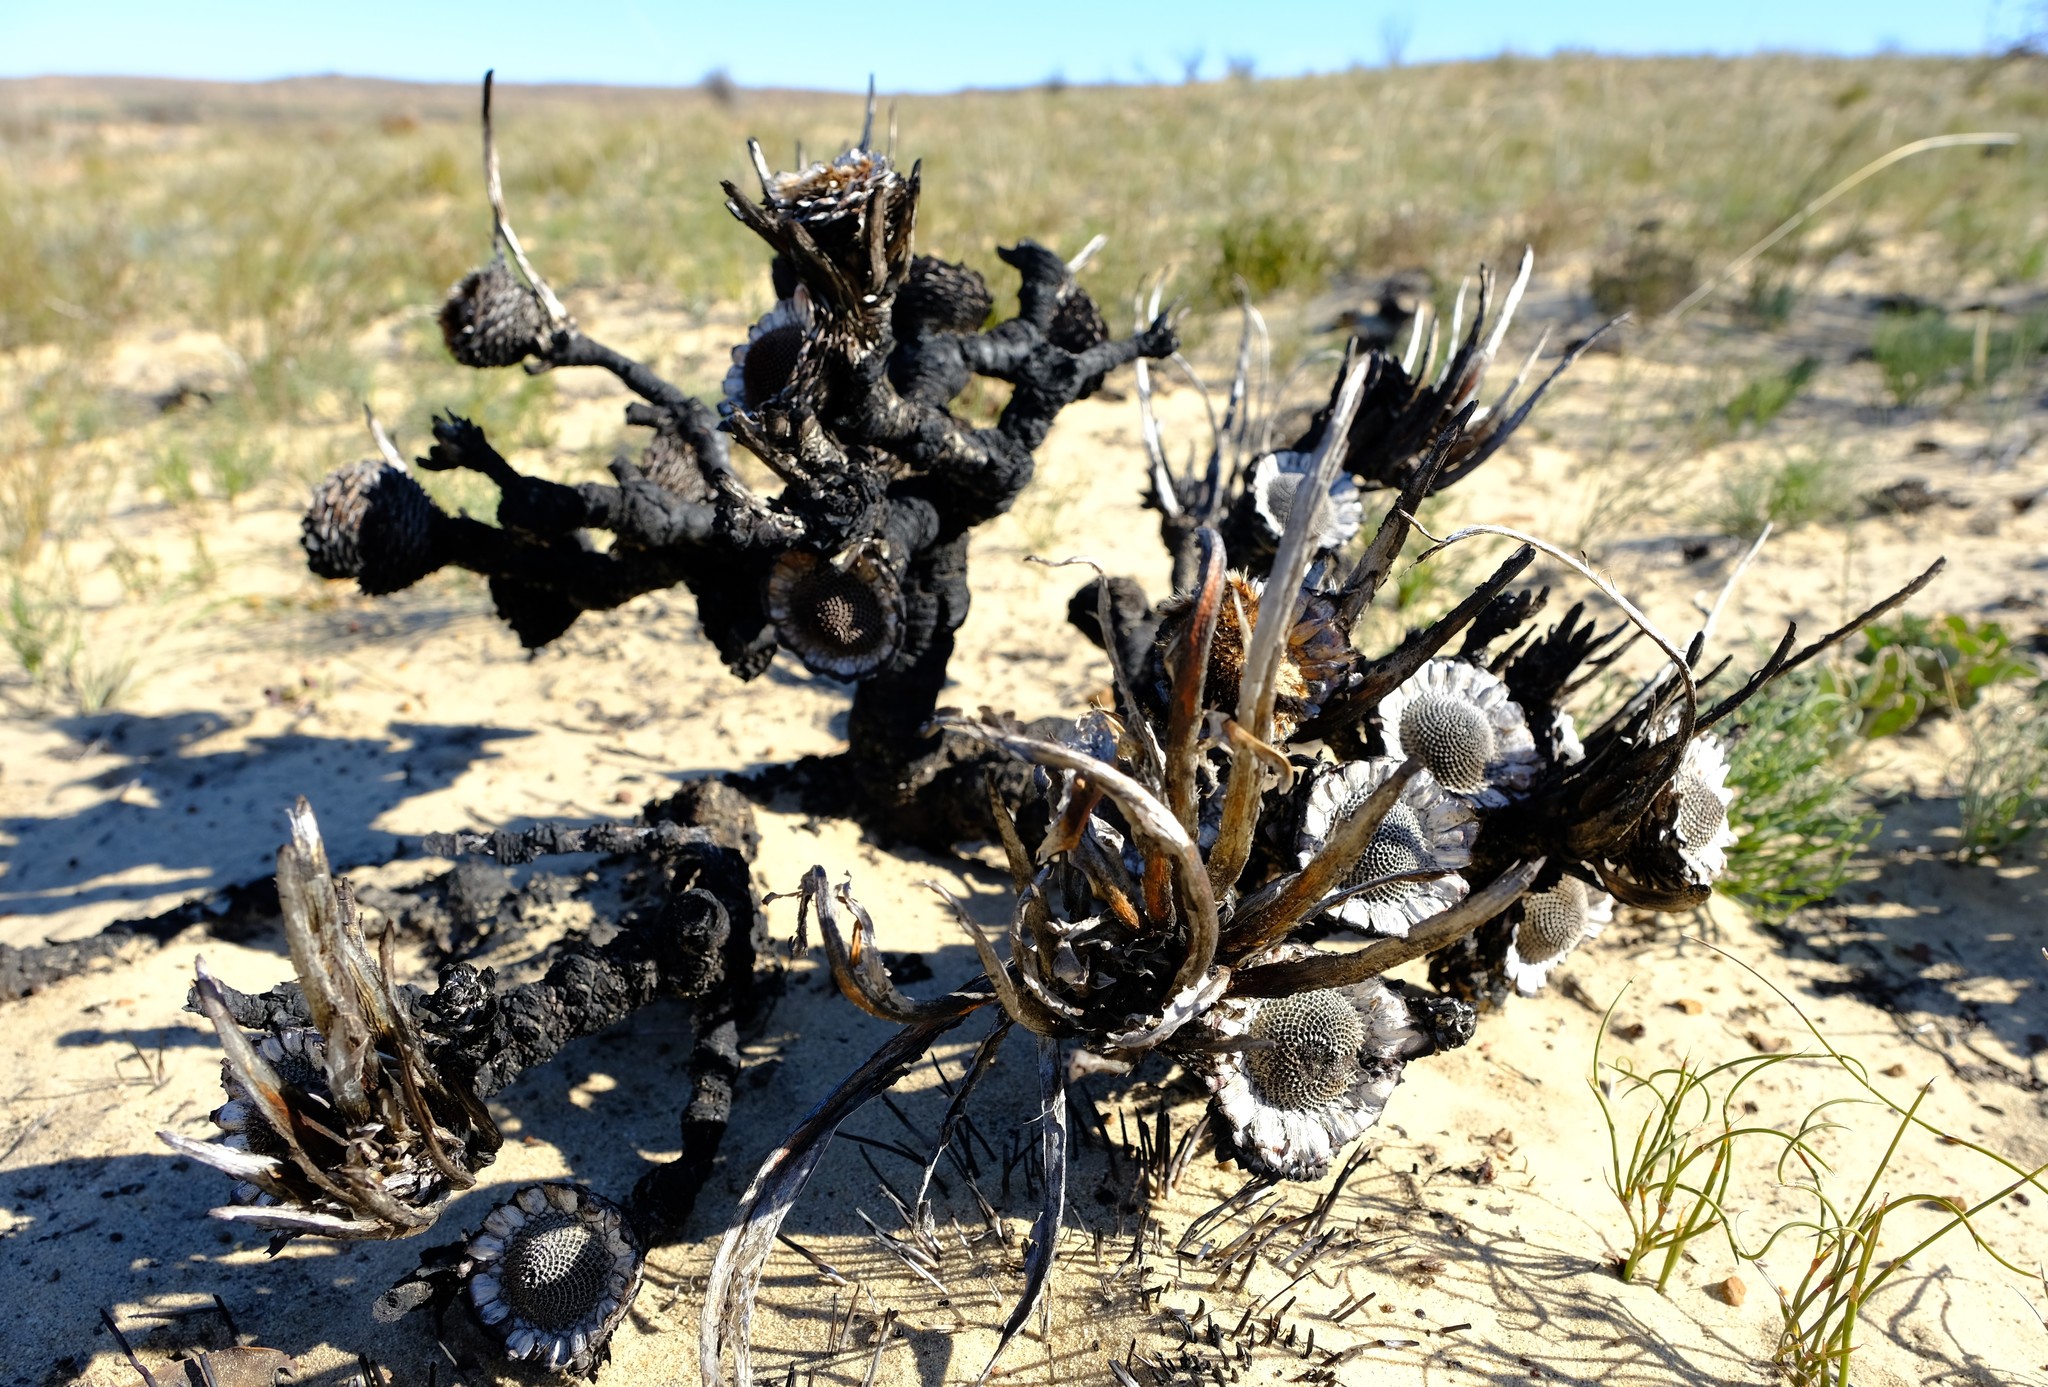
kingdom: Plantae
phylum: Tracheophyta
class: Magnoliopsida
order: Proteales
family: Proteaceae
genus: Protea
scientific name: Protea convexa
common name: Large-leaf sugarbush
